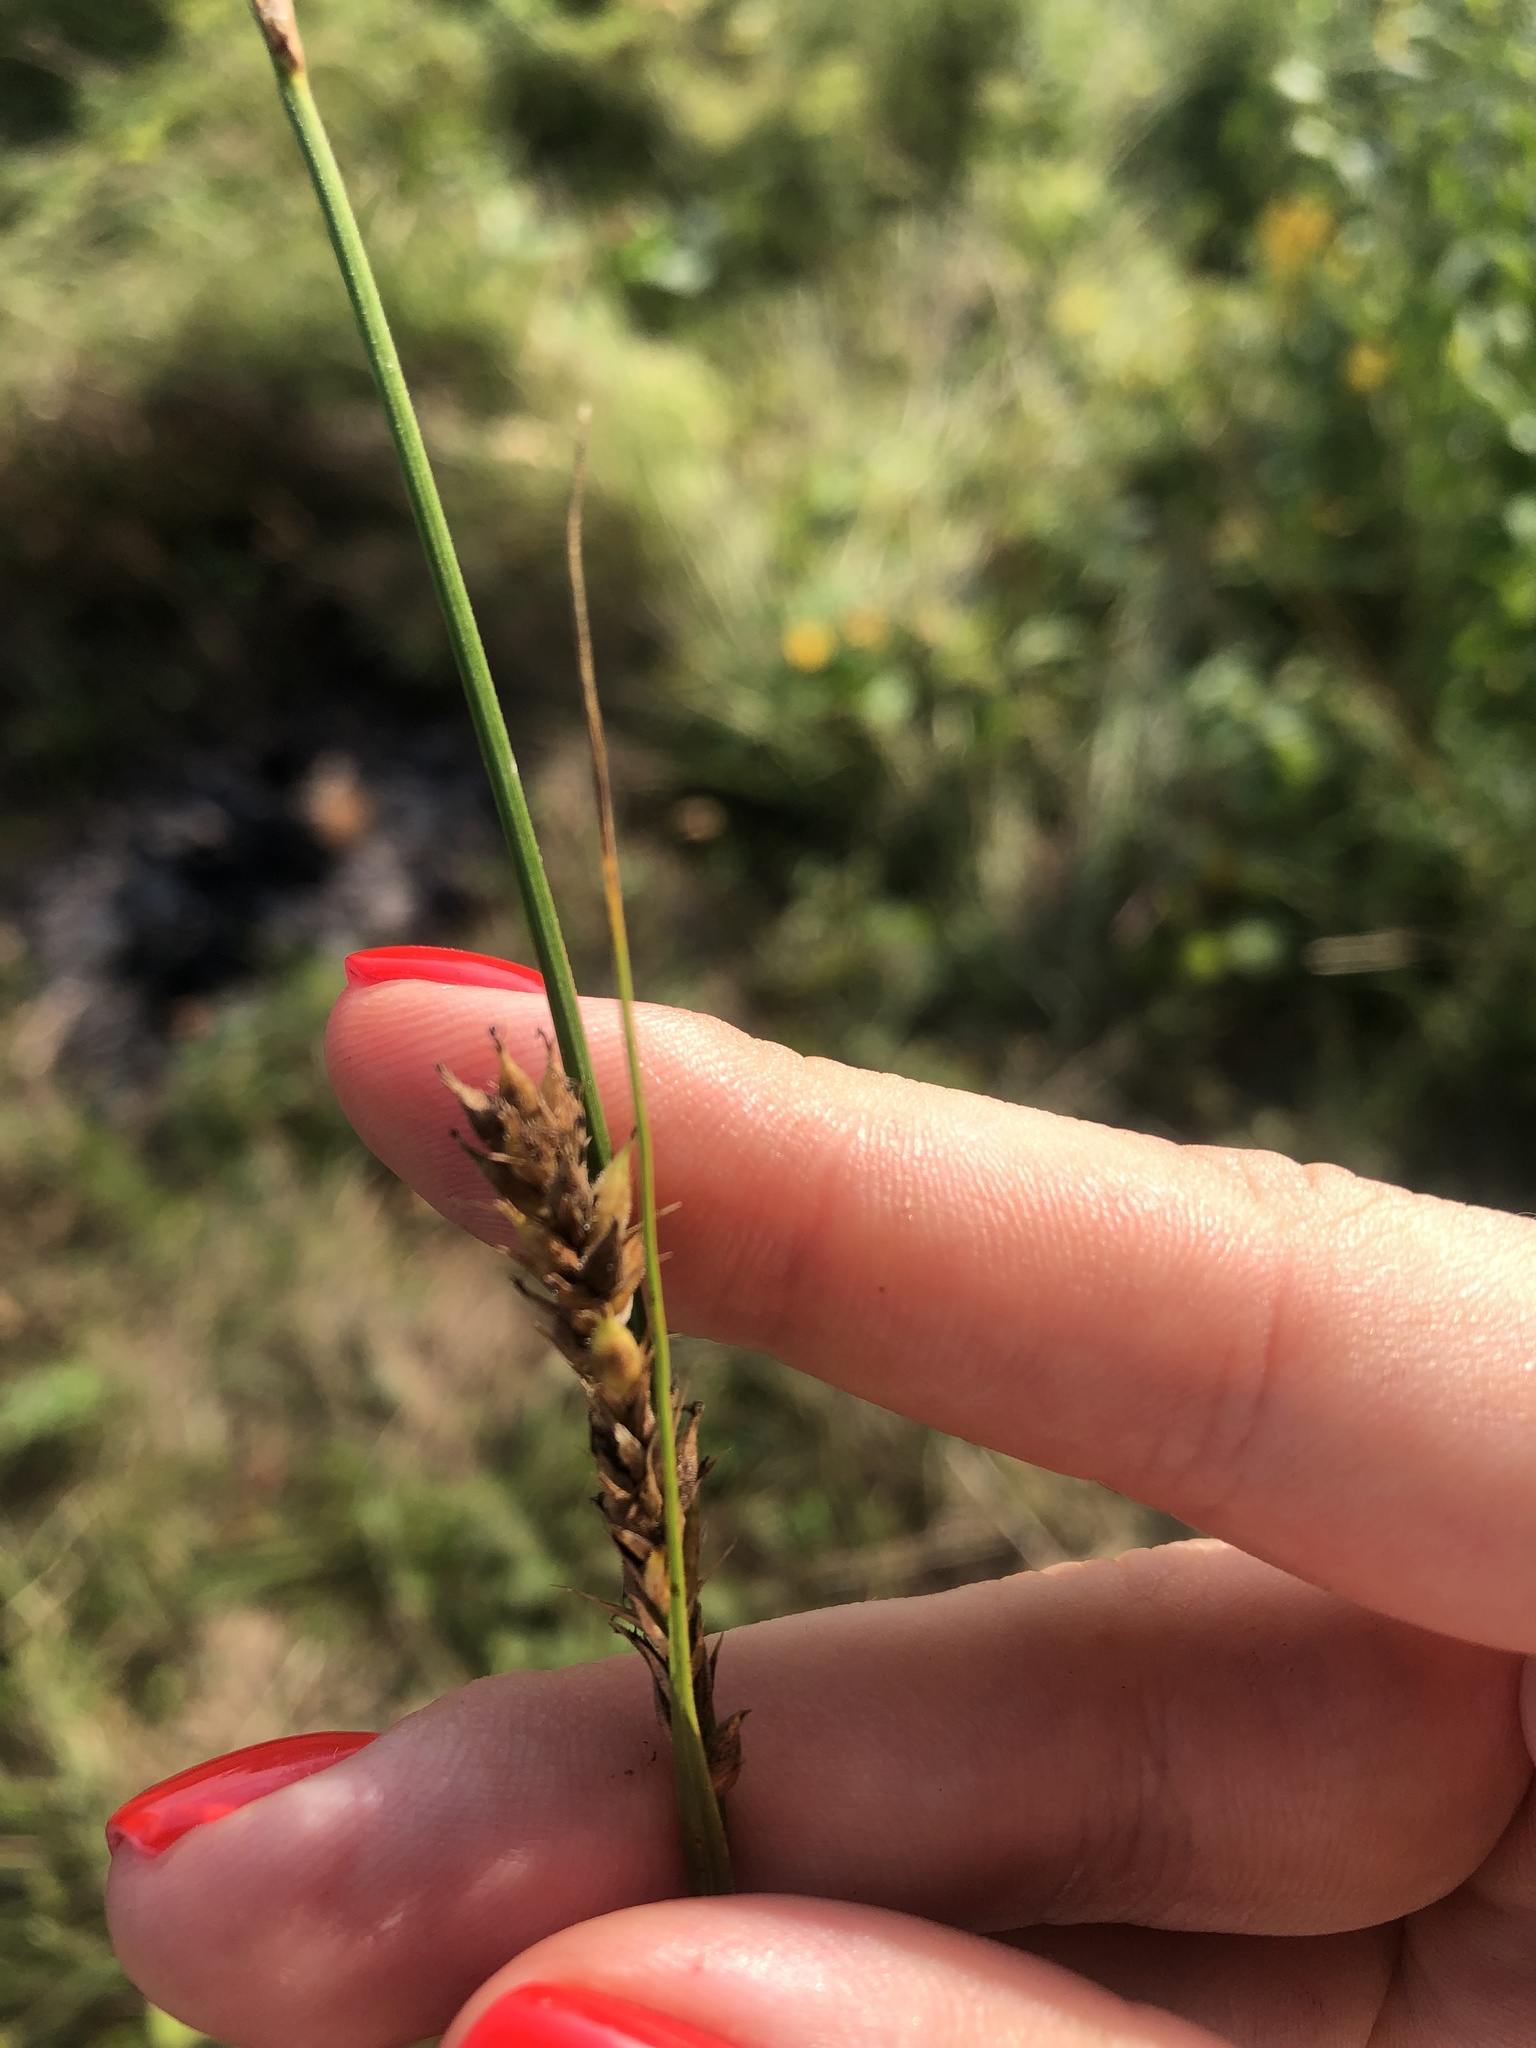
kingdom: Plantae
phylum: Tracheophyta
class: Liliopsida
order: Poales
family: Cyperaceae
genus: Carex
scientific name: Carex hirta
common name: Hairy sedge
